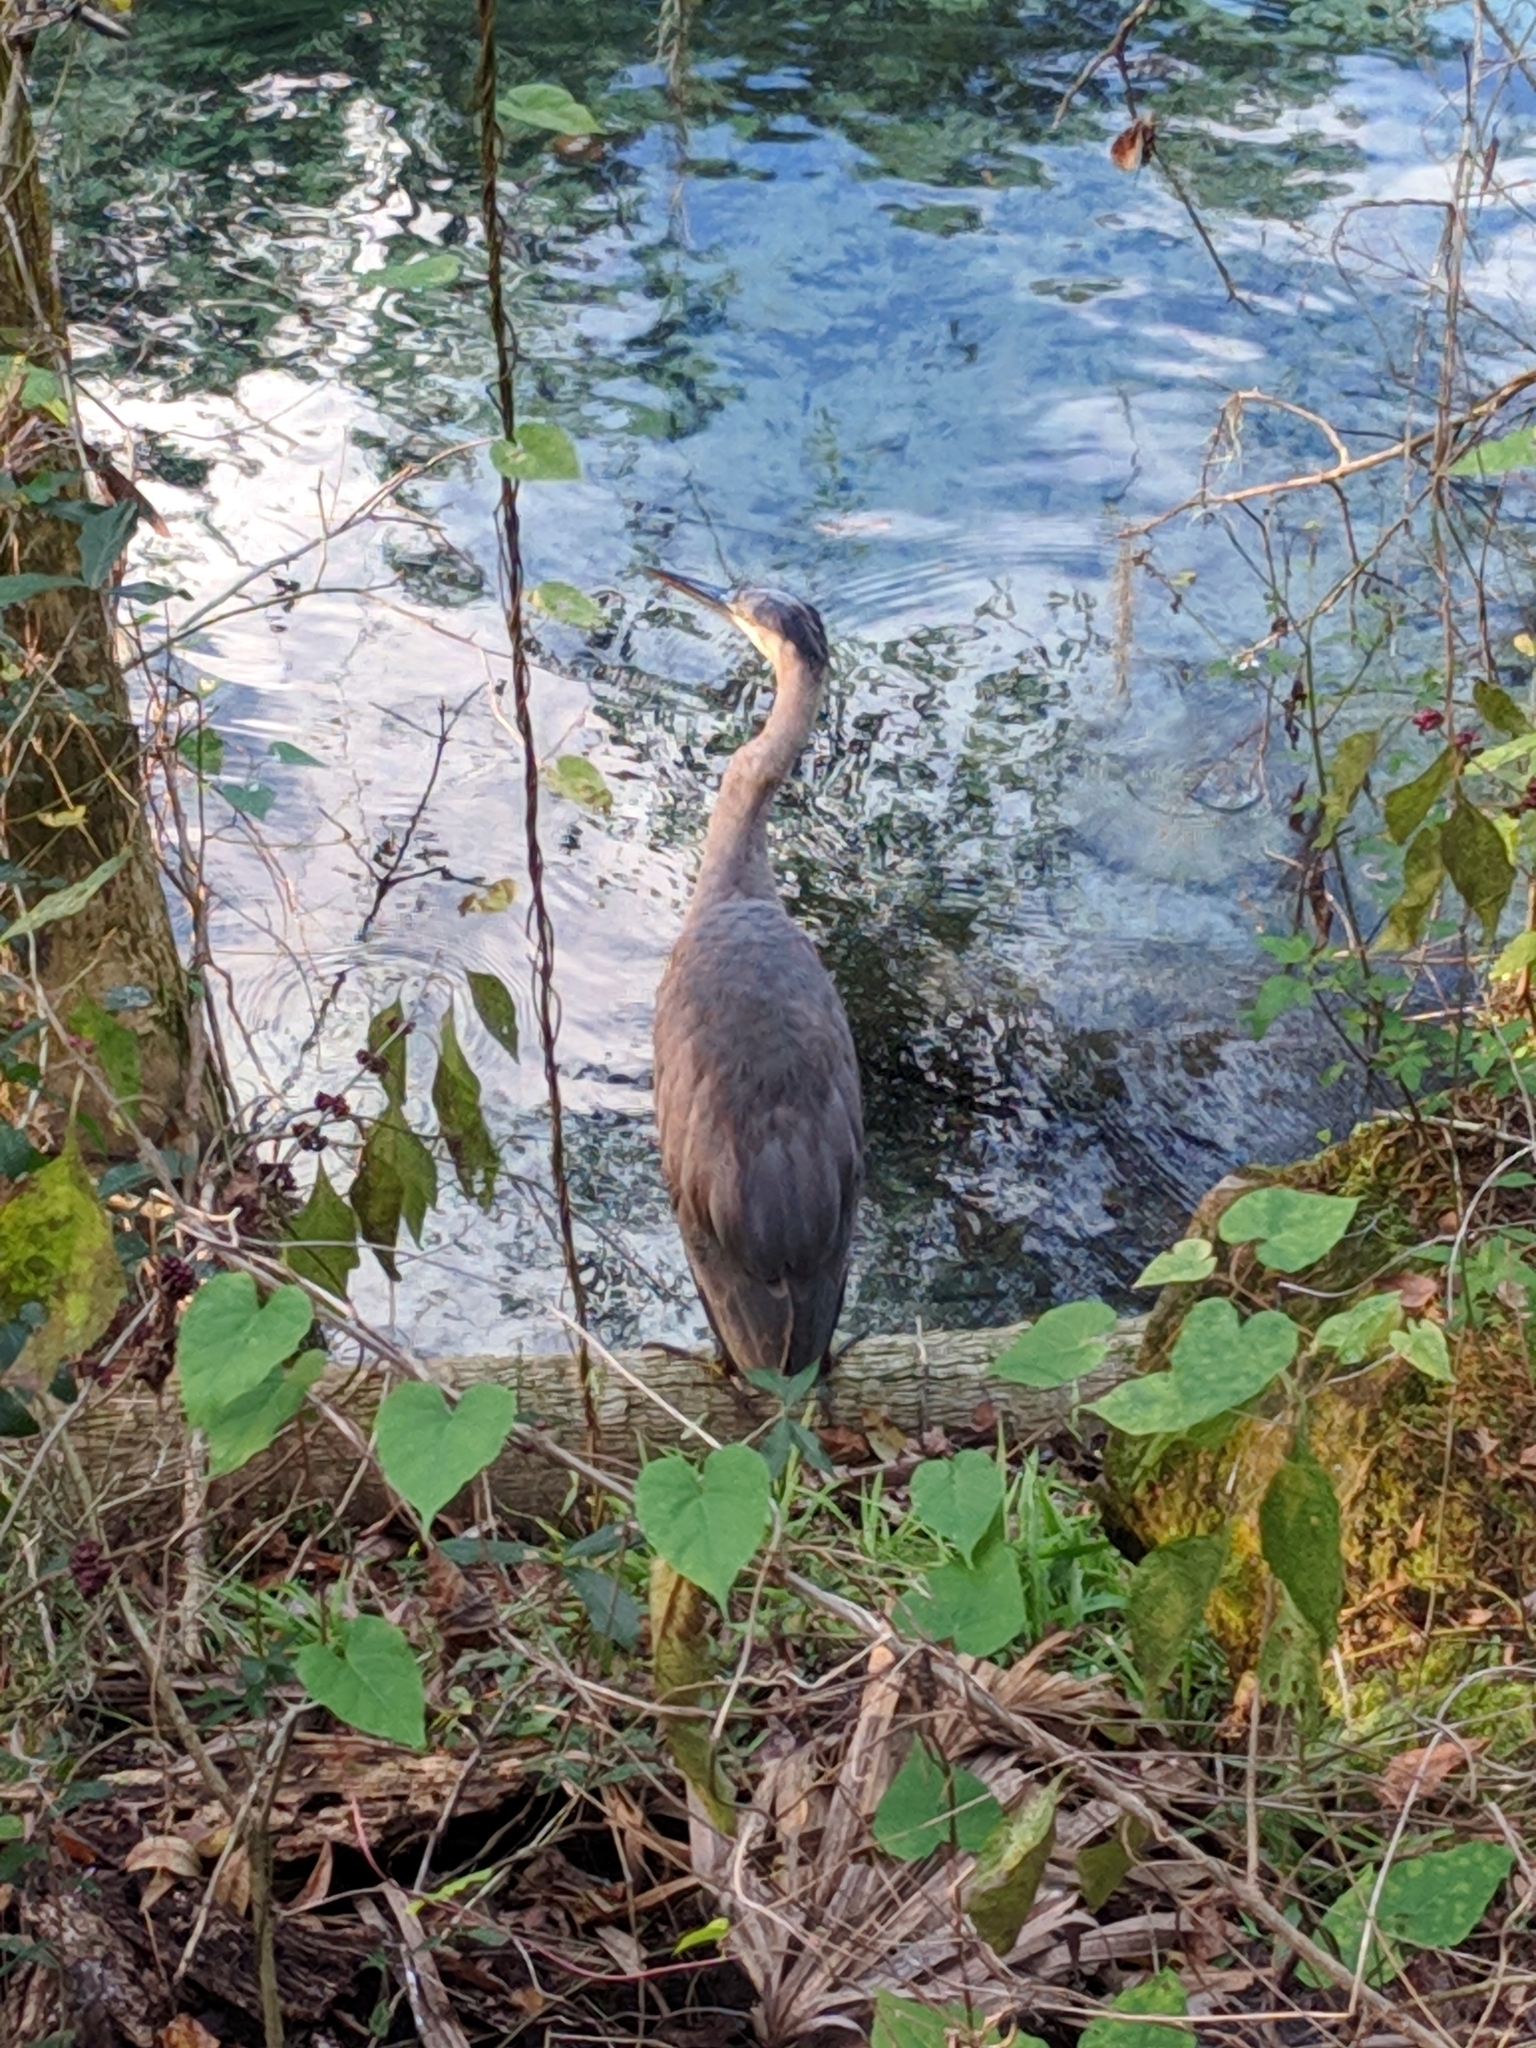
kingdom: Animalia
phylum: Chordata
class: Aves
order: Pelecaniformes
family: Ardeidae
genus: Ardea
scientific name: Ardea herodias
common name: Great blue heron
